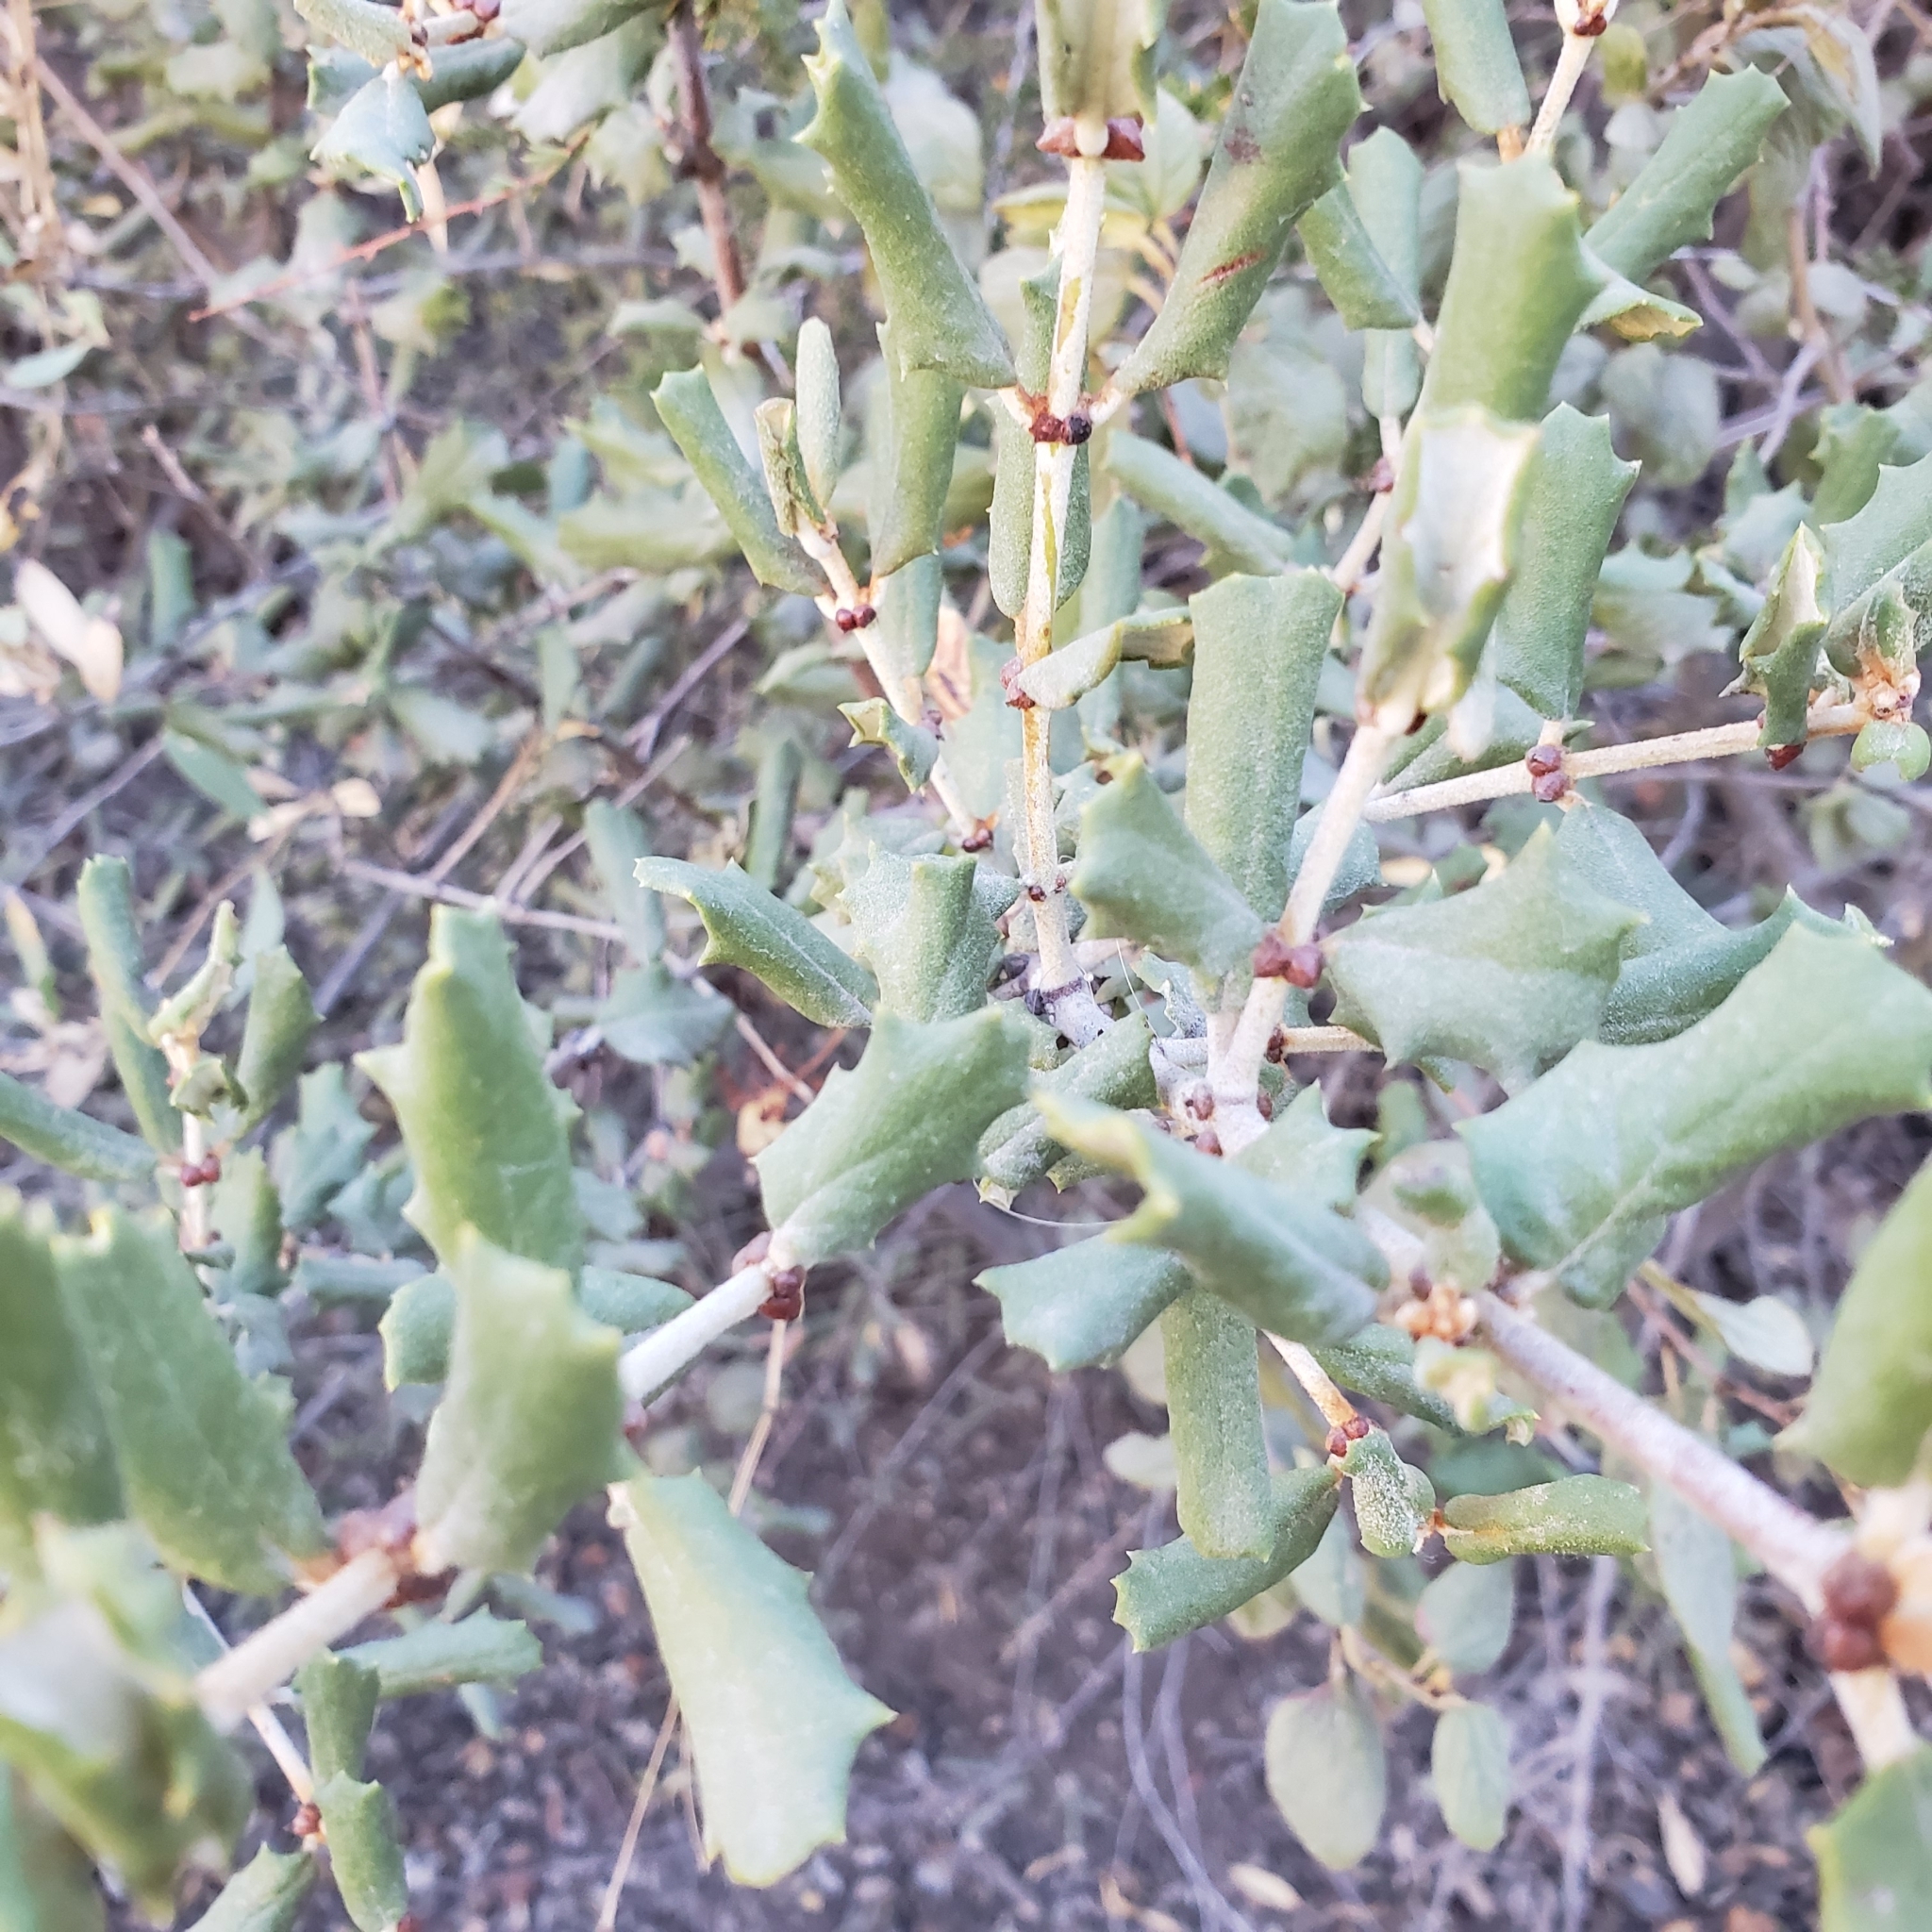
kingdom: Plantae
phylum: Tracheophyta
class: Magnoliopsida
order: Rosales
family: Rhamnaceae
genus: Ceanothus
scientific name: Ceanothus crassifolius
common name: Hoaryleaf ceanothus
